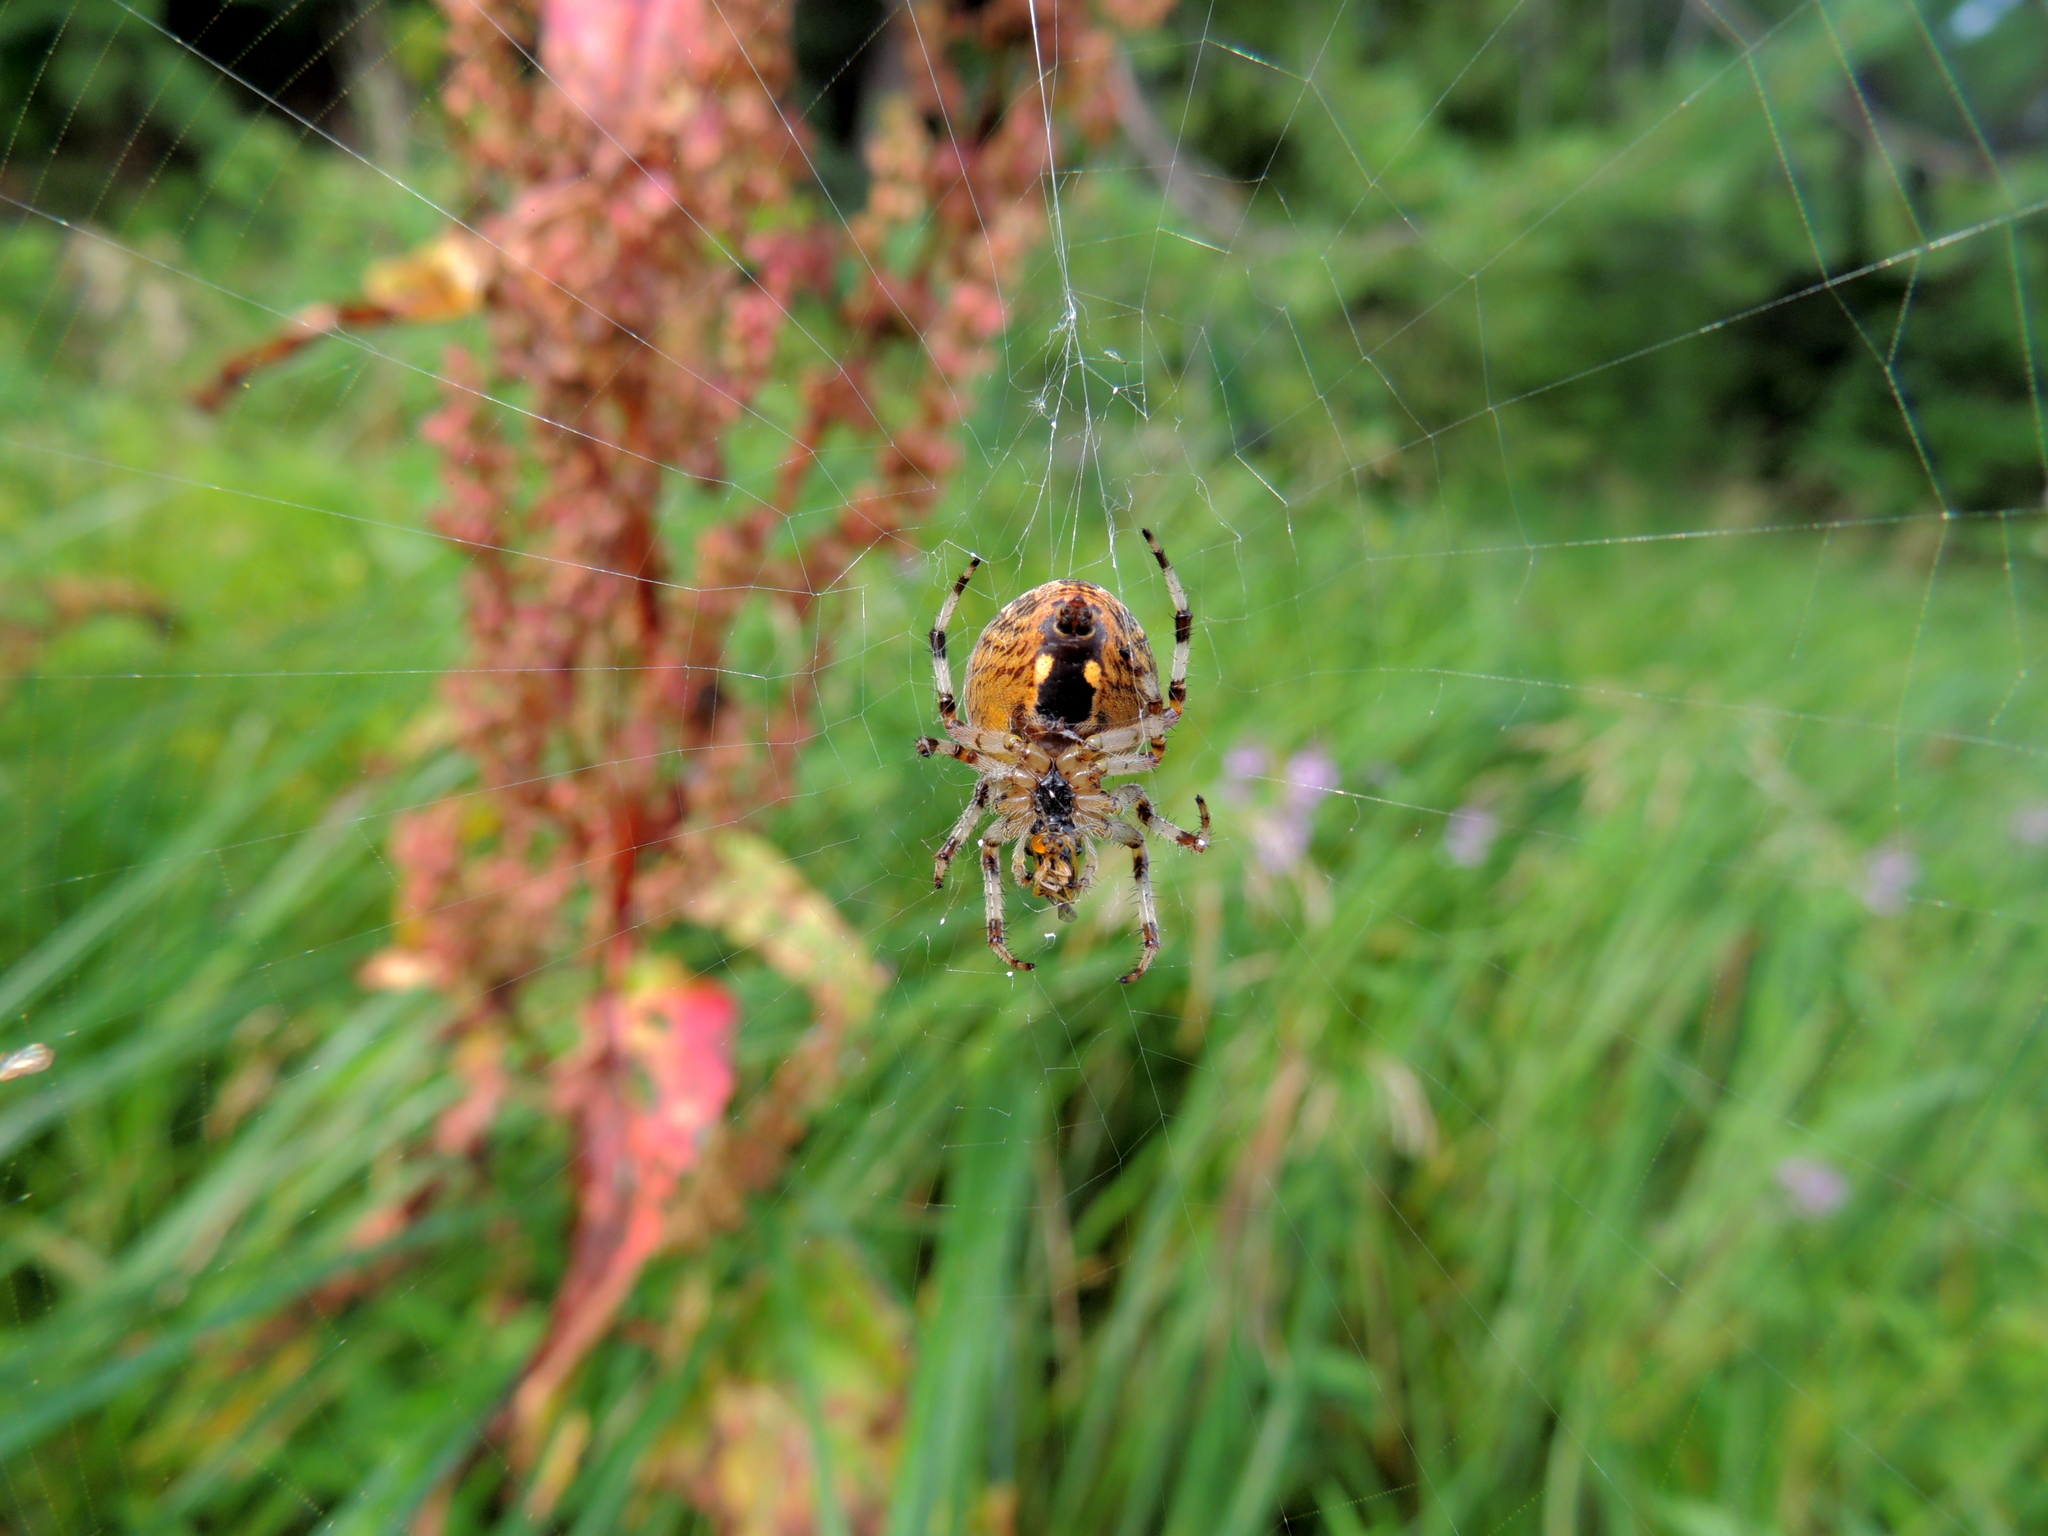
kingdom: Animalia
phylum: Arthropoda
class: Arachnida
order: Araneae
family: Araneidae
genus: Araneus
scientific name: Araneus quadratus
